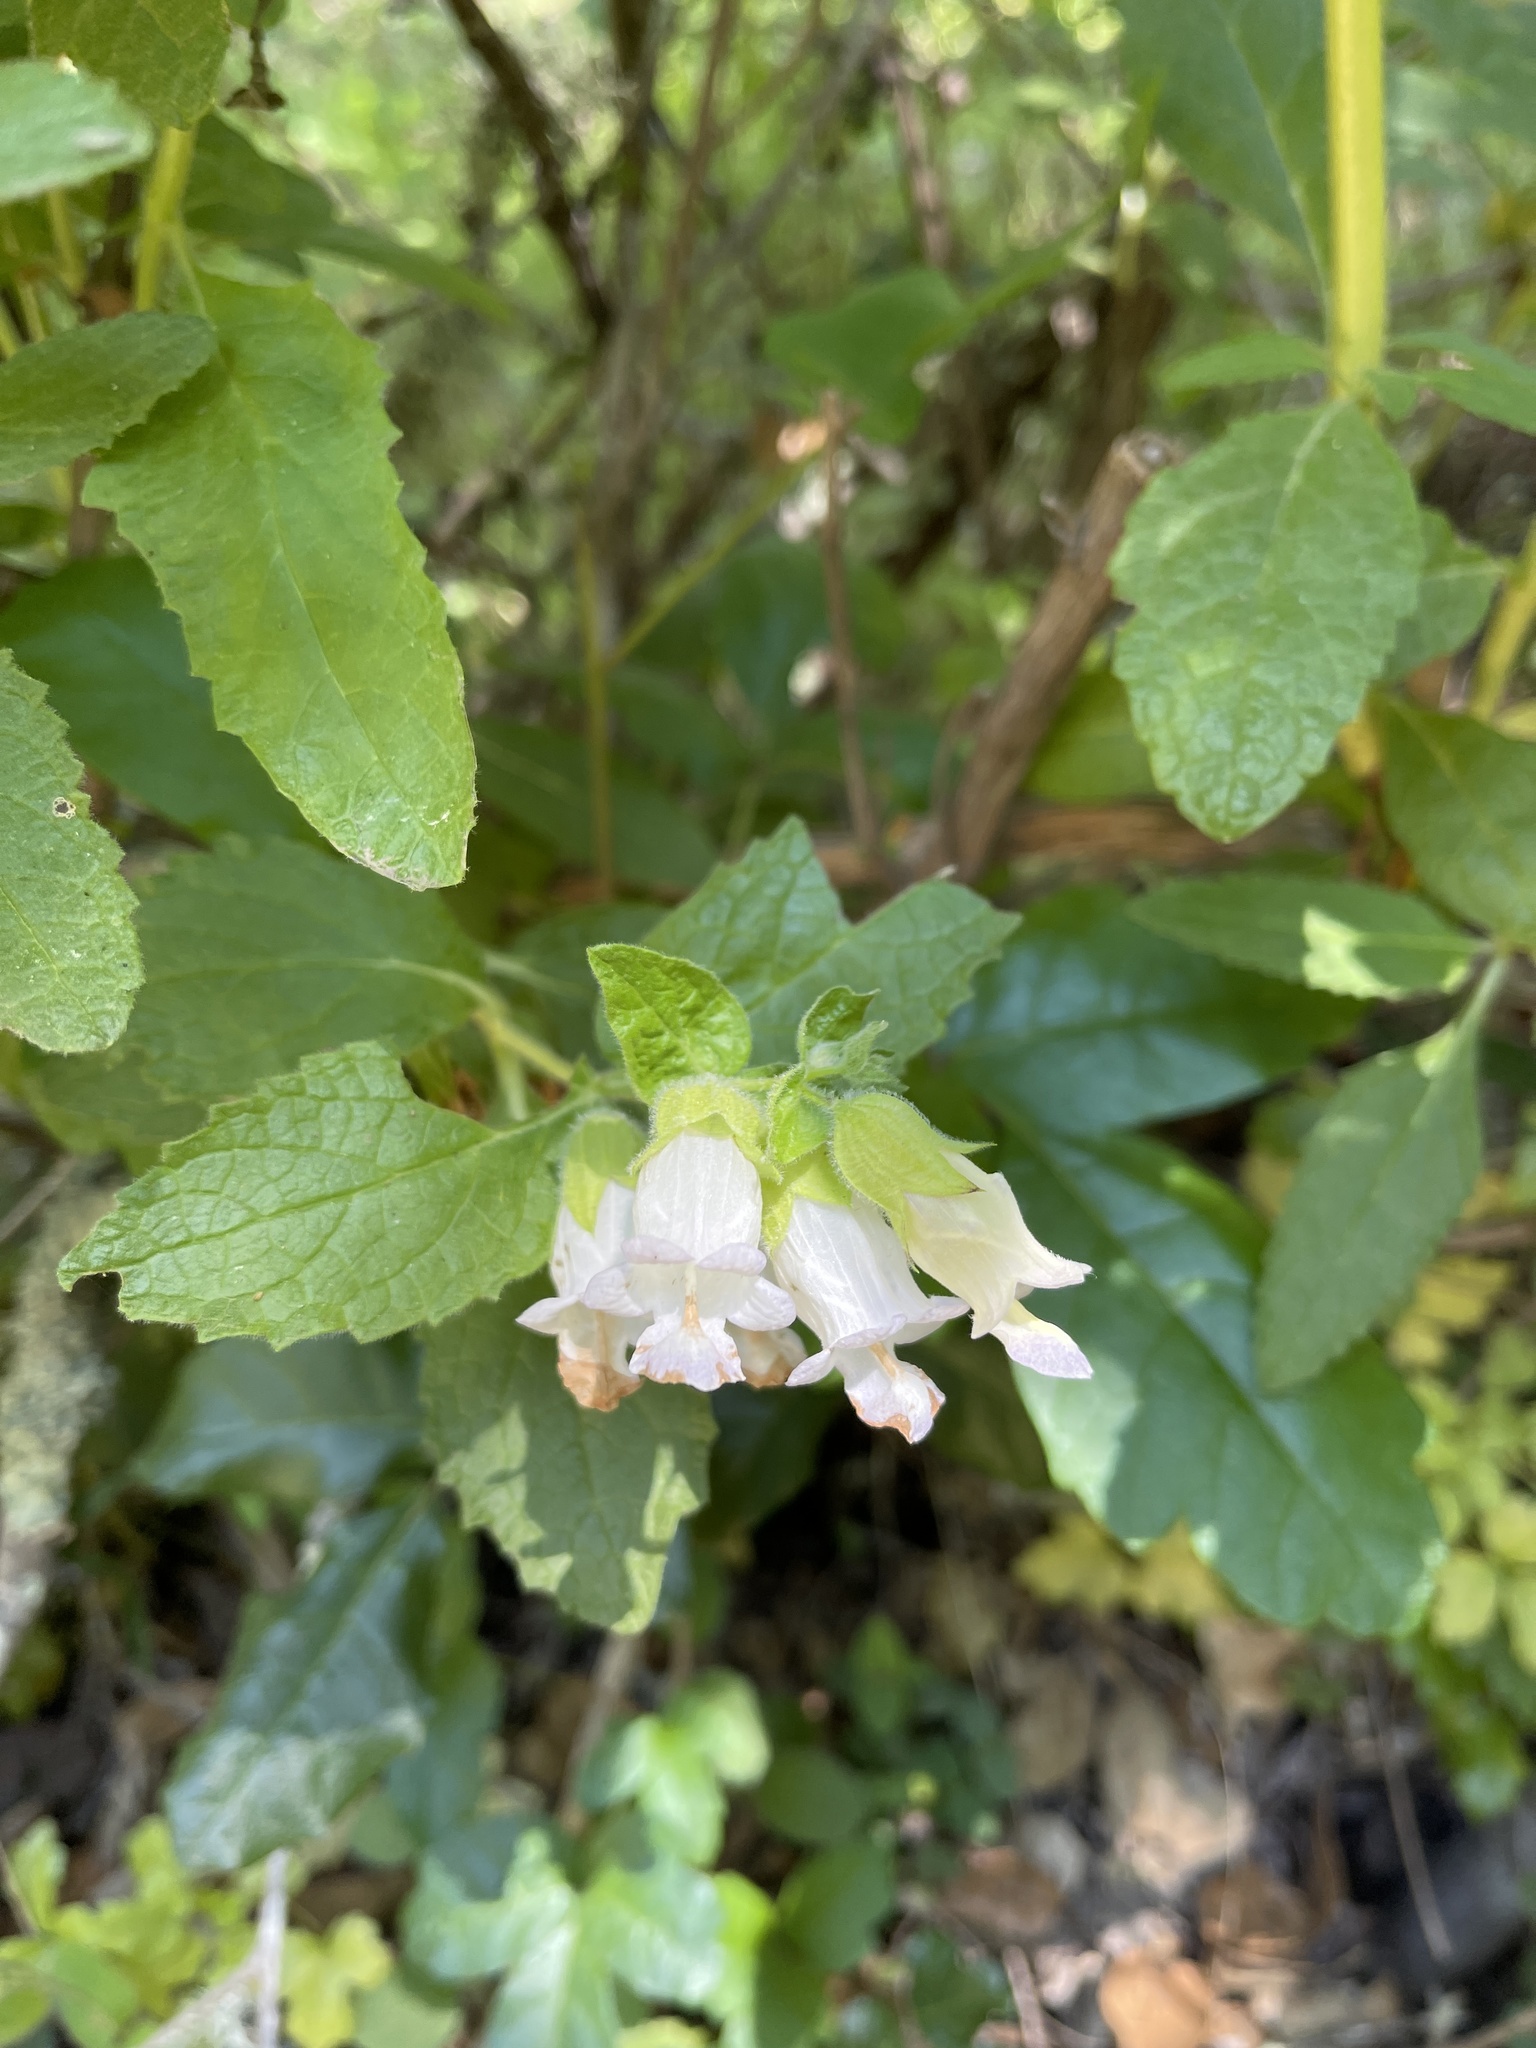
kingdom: Plantae
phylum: Tracheophyta
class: Magnoliopsida
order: Lamiales
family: Lamiaceae
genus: Lepechinia
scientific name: Lepechinia calycina
